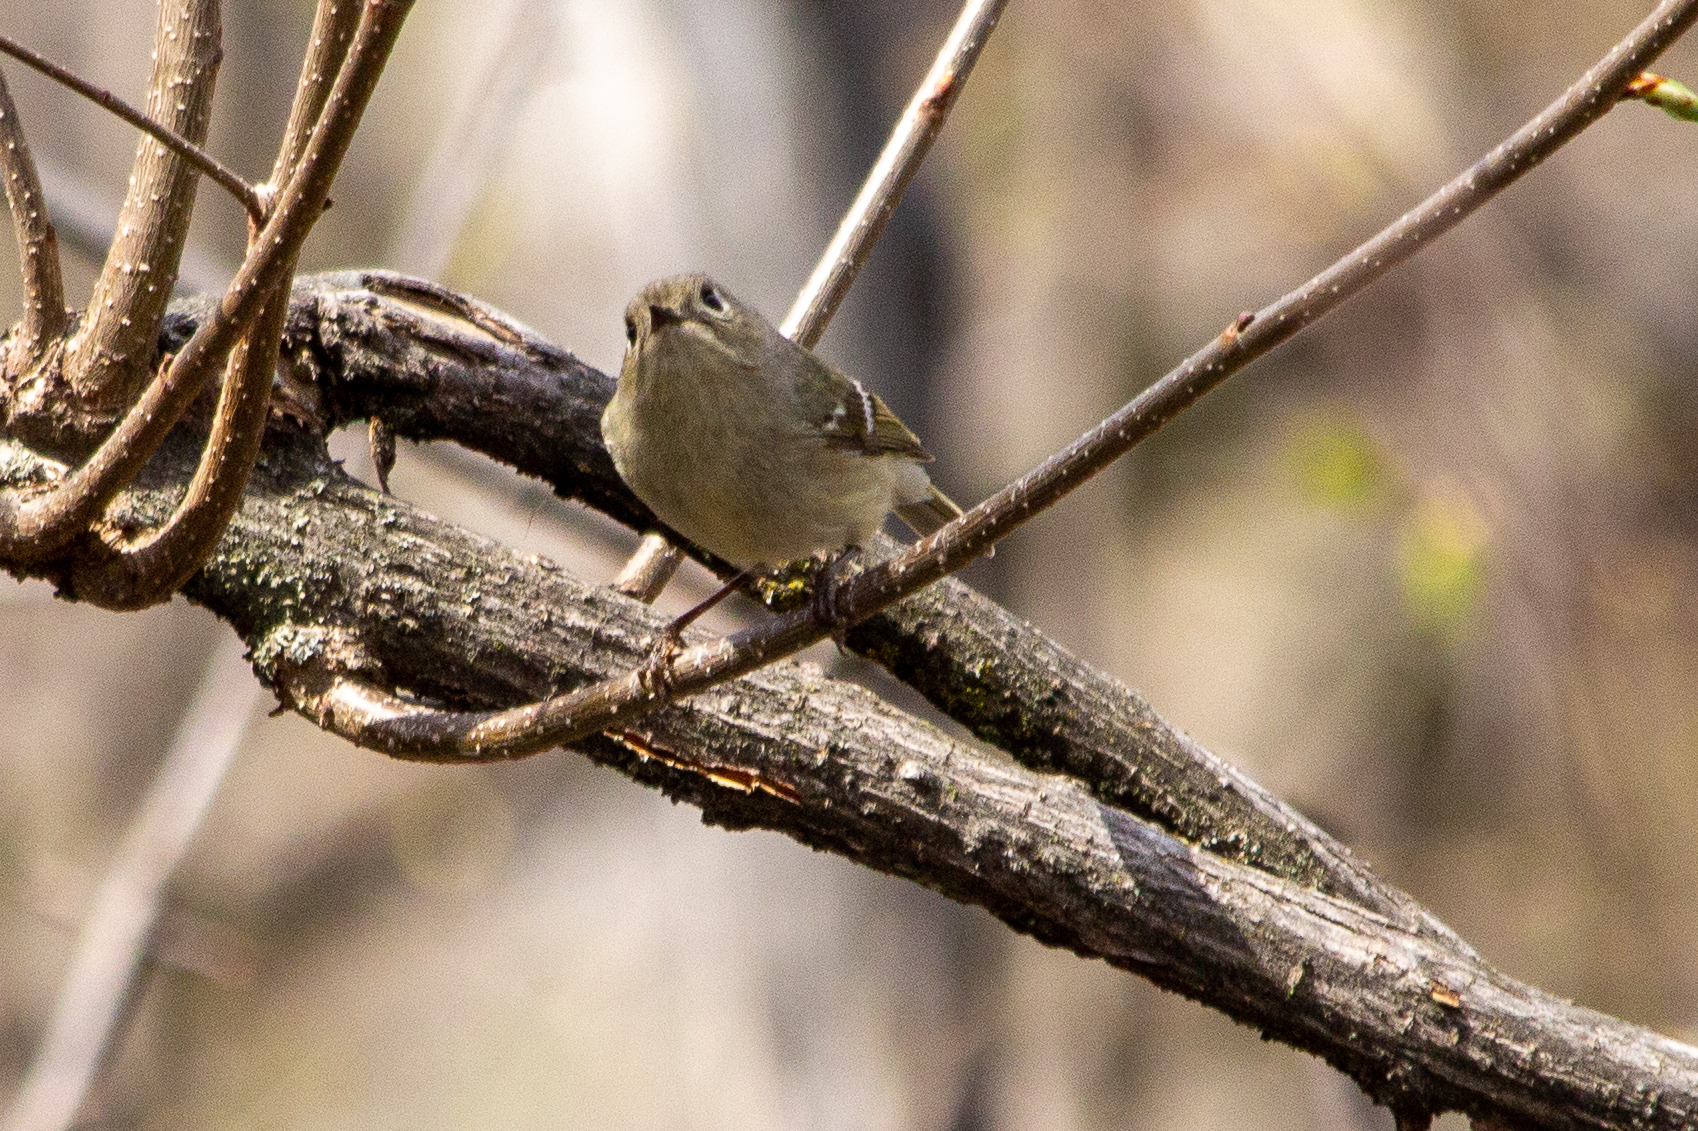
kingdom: Animalia
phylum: Chordata
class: Aves
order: Passeriformes
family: Regulidae
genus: Regulus
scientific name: Regulus calendula
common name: Ruby-crowned kinglet
